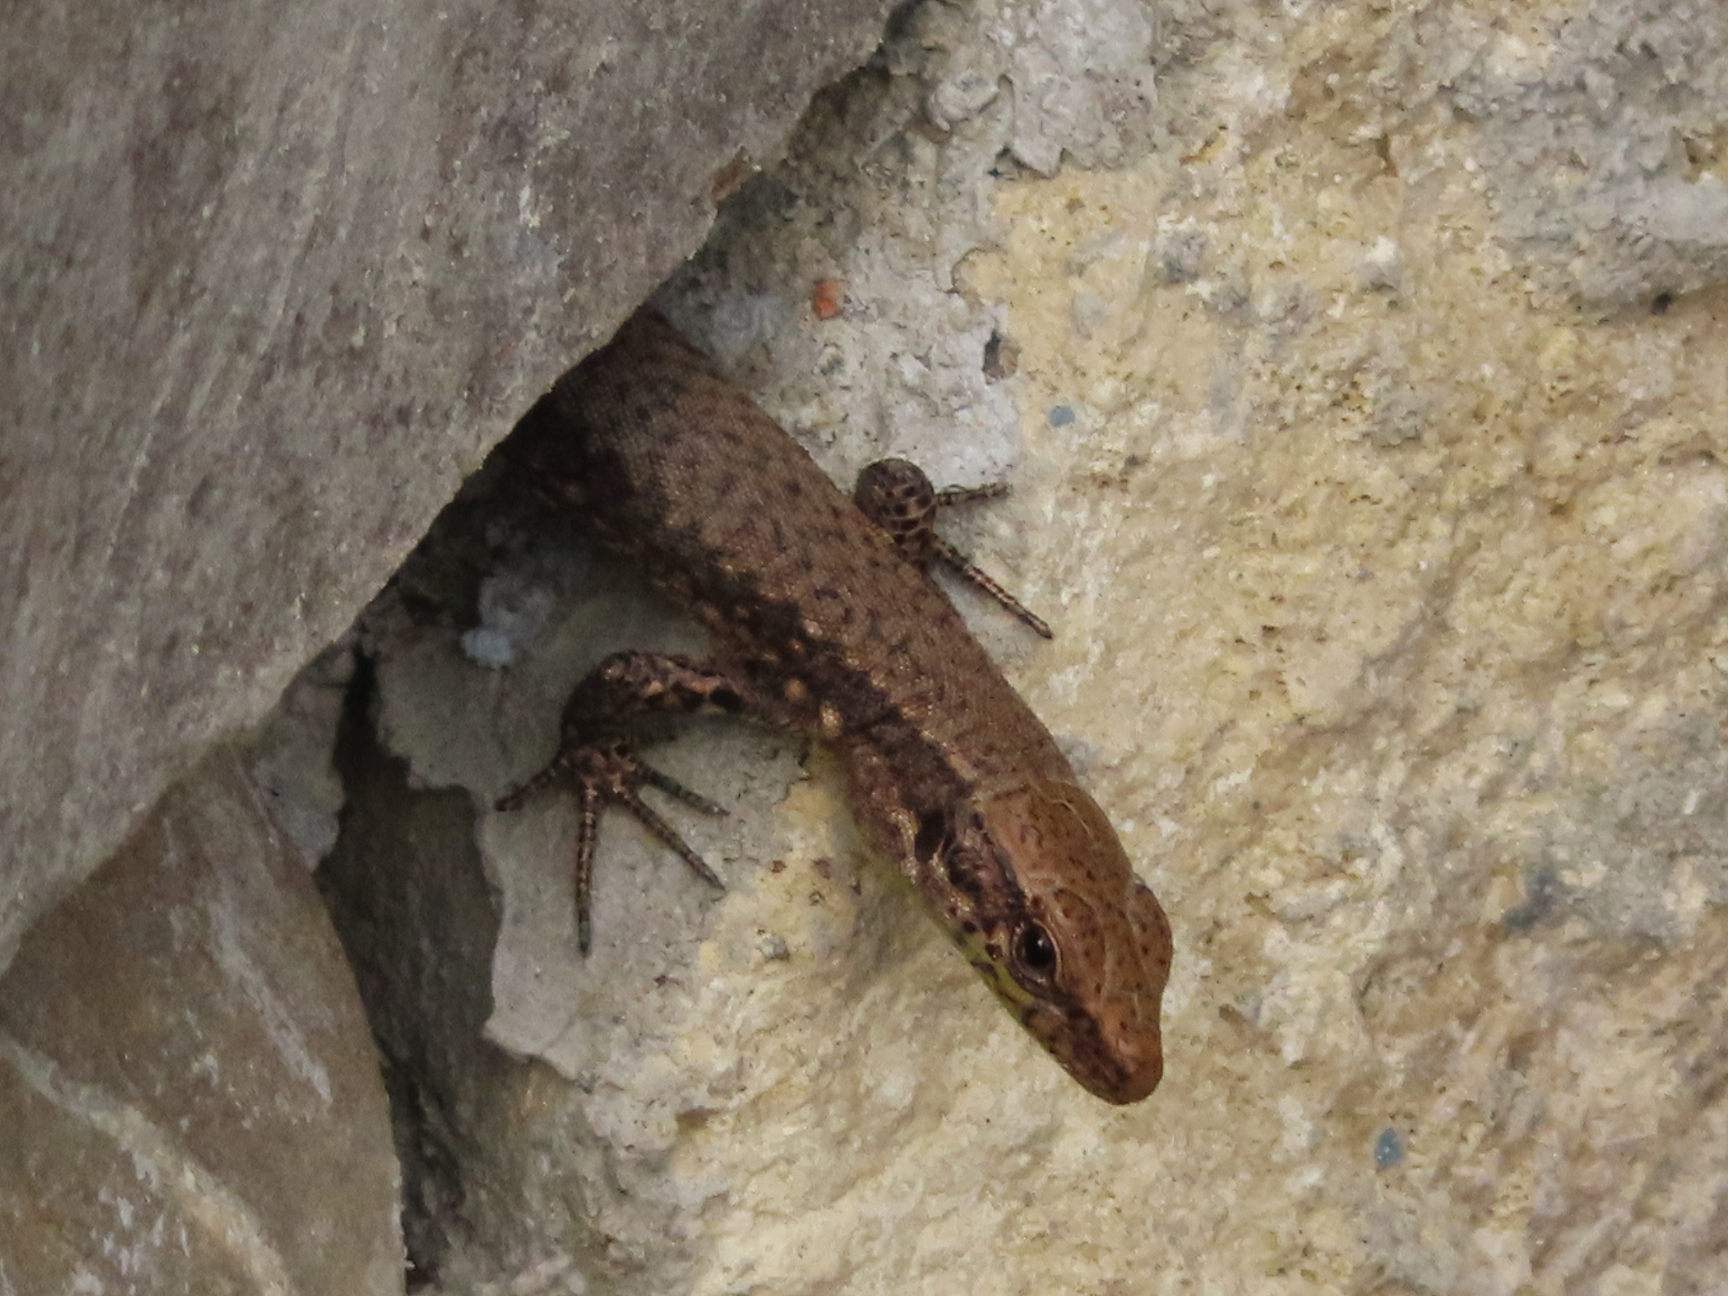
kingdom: Animalia
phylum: Chordata
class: Squamata
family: Lacertidae
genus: Darevskia
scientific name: Darevskia mixta
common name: Ajarian lizard
